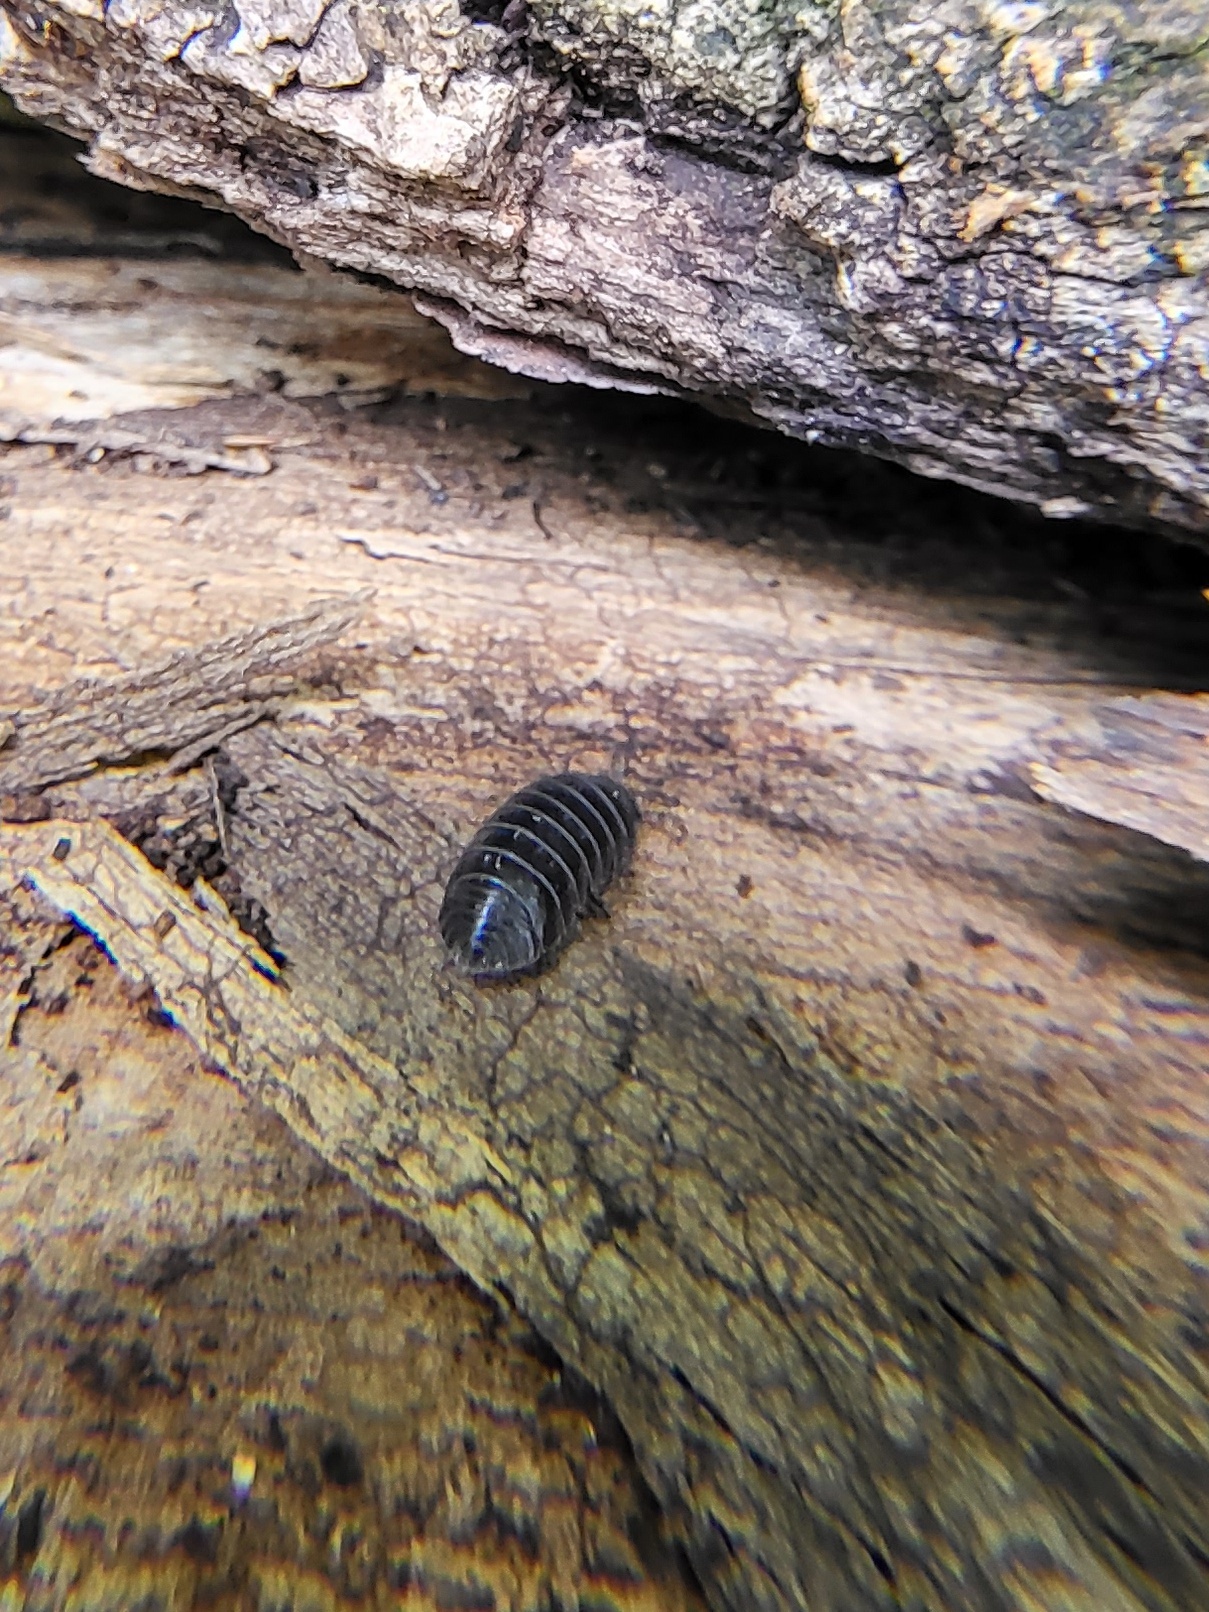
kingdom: Animalia
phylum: Arthropoda
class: Malacostraca
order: Isopoda
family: Armadillidiidae
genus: Armadillidium
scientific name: Armadillidium vulgare
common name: Common pill woodlouse
